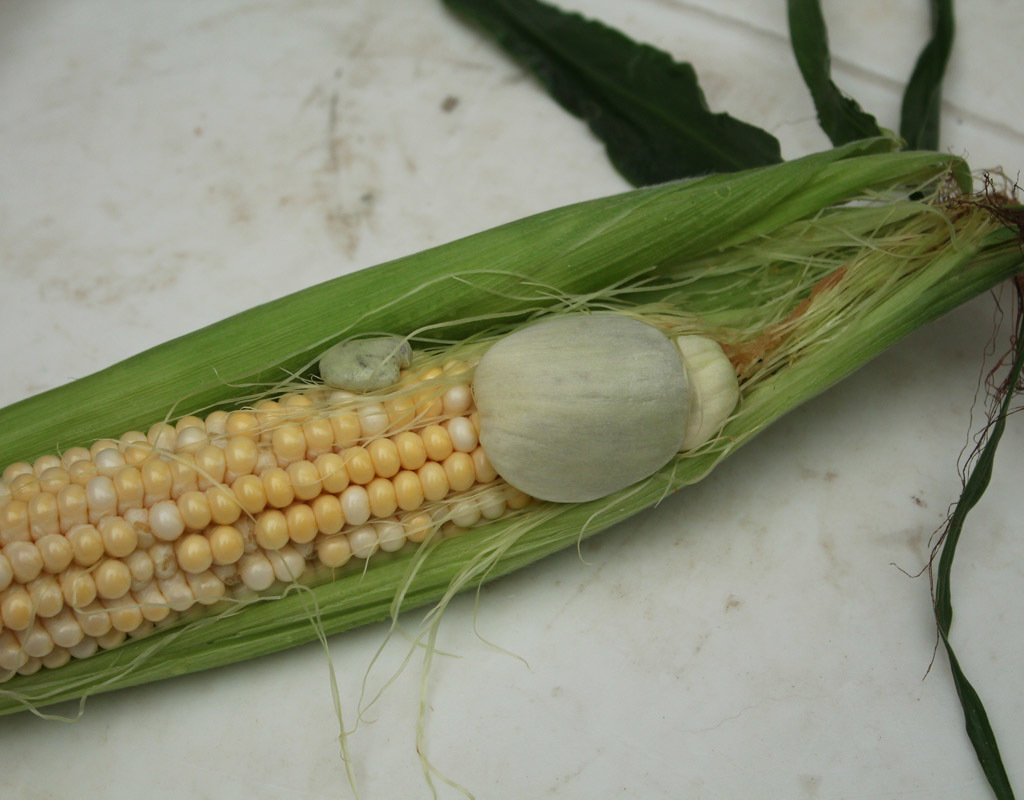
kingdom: Fungi
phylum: Basidiomycota
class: Ustilaginomycetes
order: Ustilaginales
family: Ustilaginaceae
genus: Mycosarcoma
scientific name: Mycosarcoma maydis
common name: Corn smut
